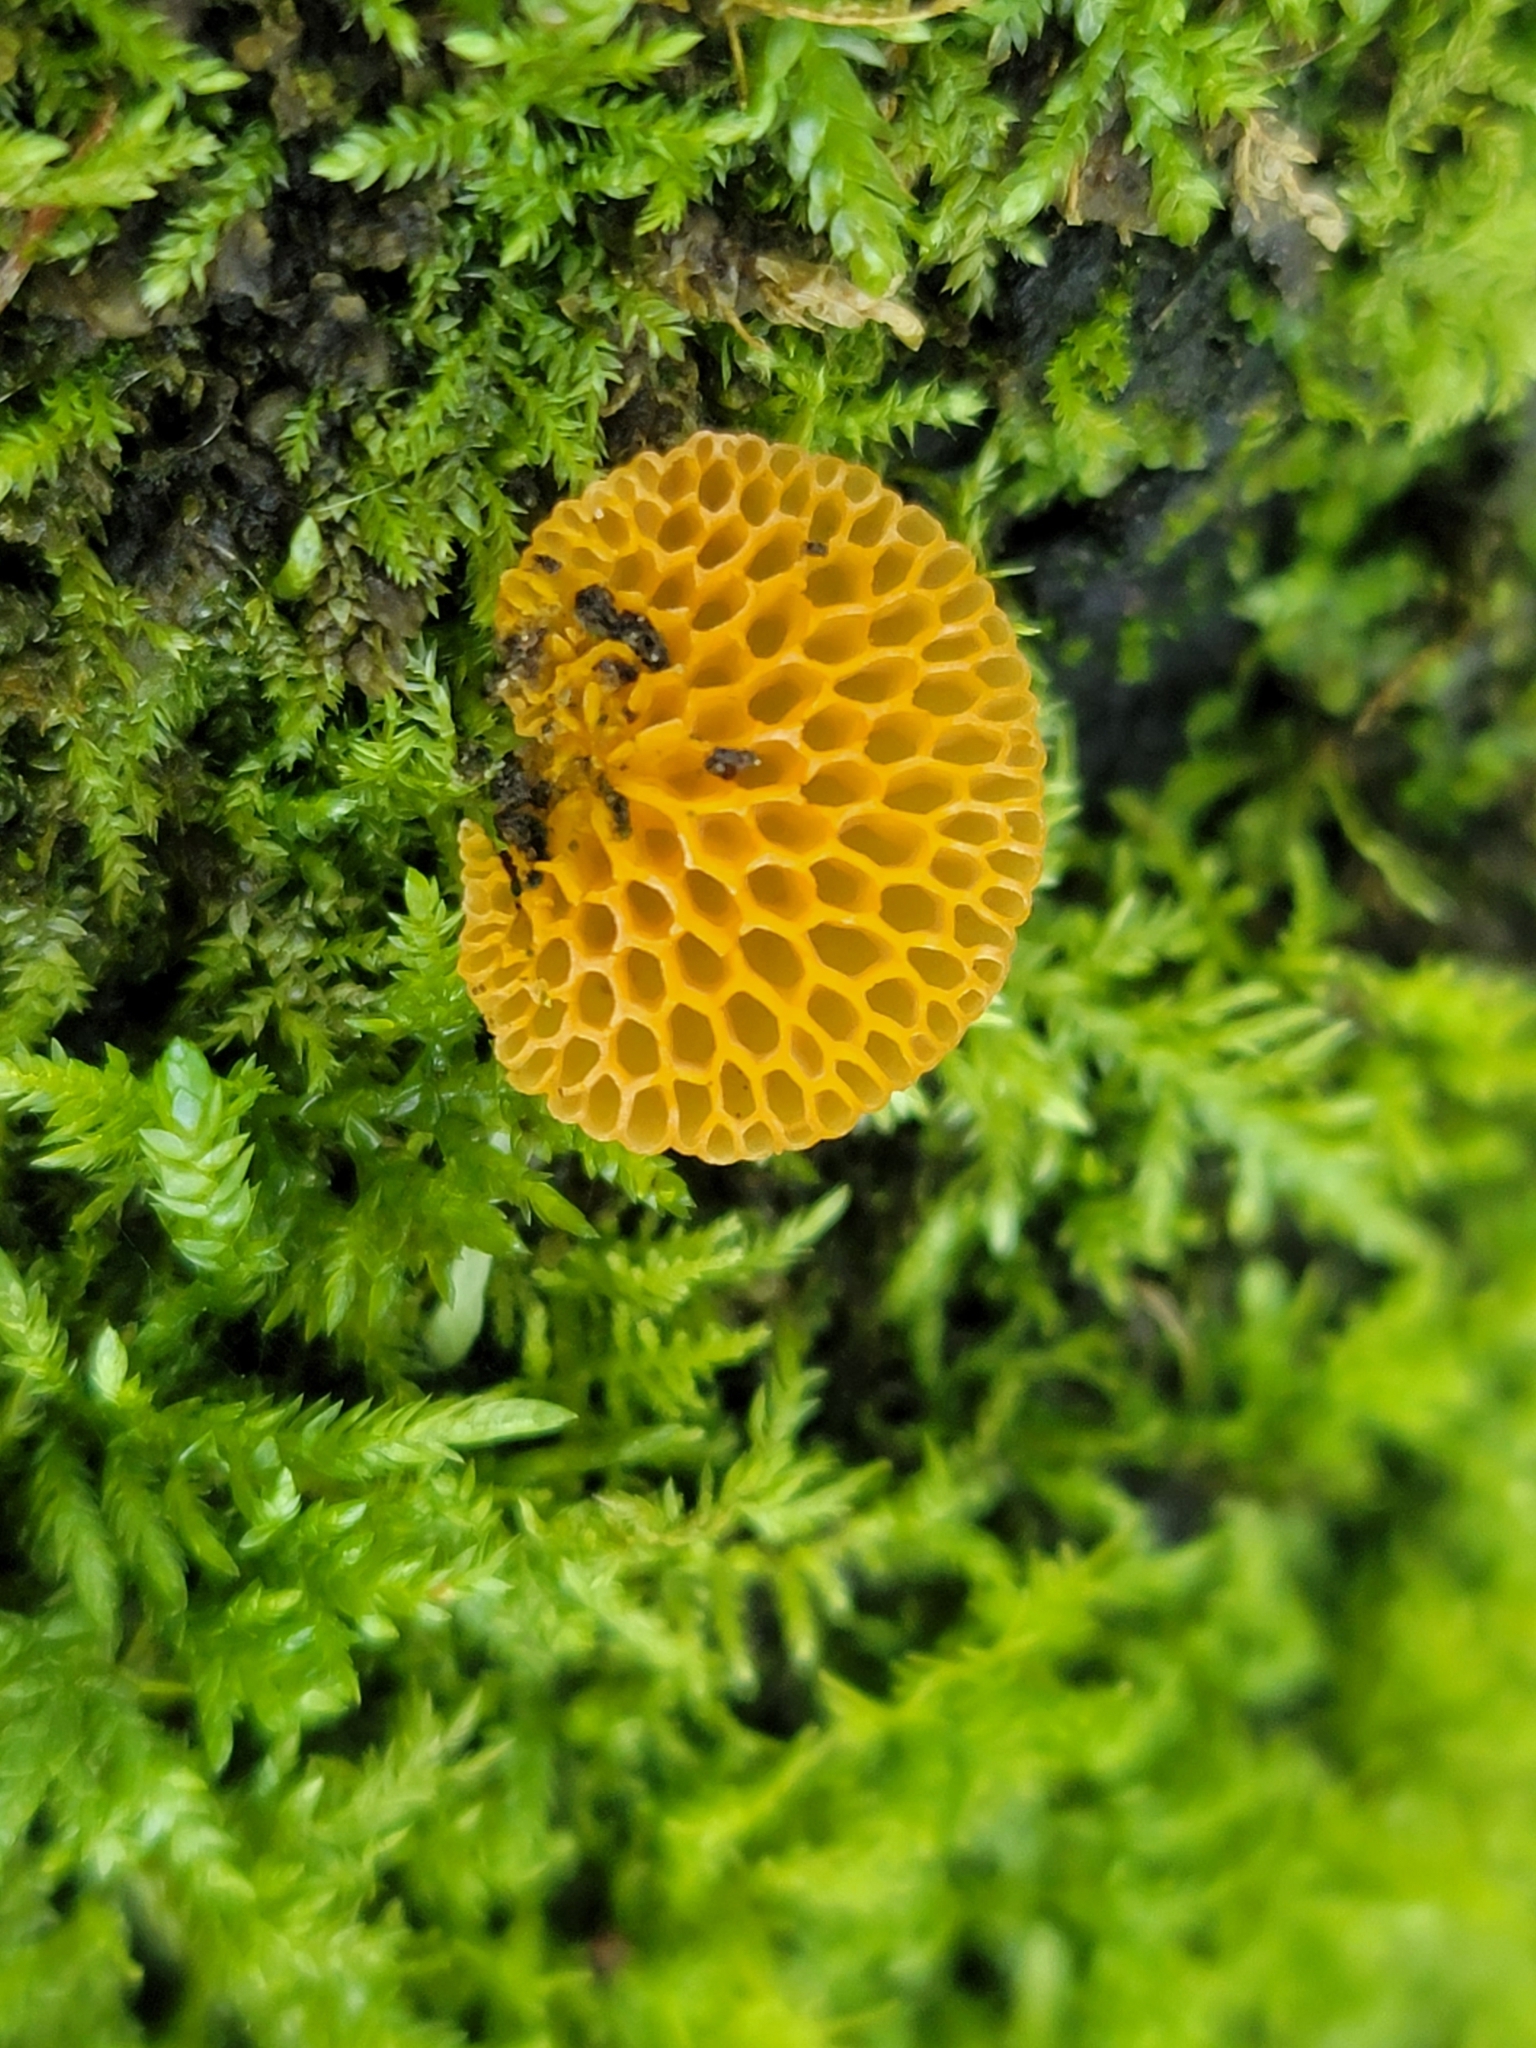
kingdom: Fungi
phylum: Basidiomycota
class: Agaricomycetes
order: Agaricales
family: Mycenaceae
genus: Favolaschia
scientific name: Favolaschia claudopus
